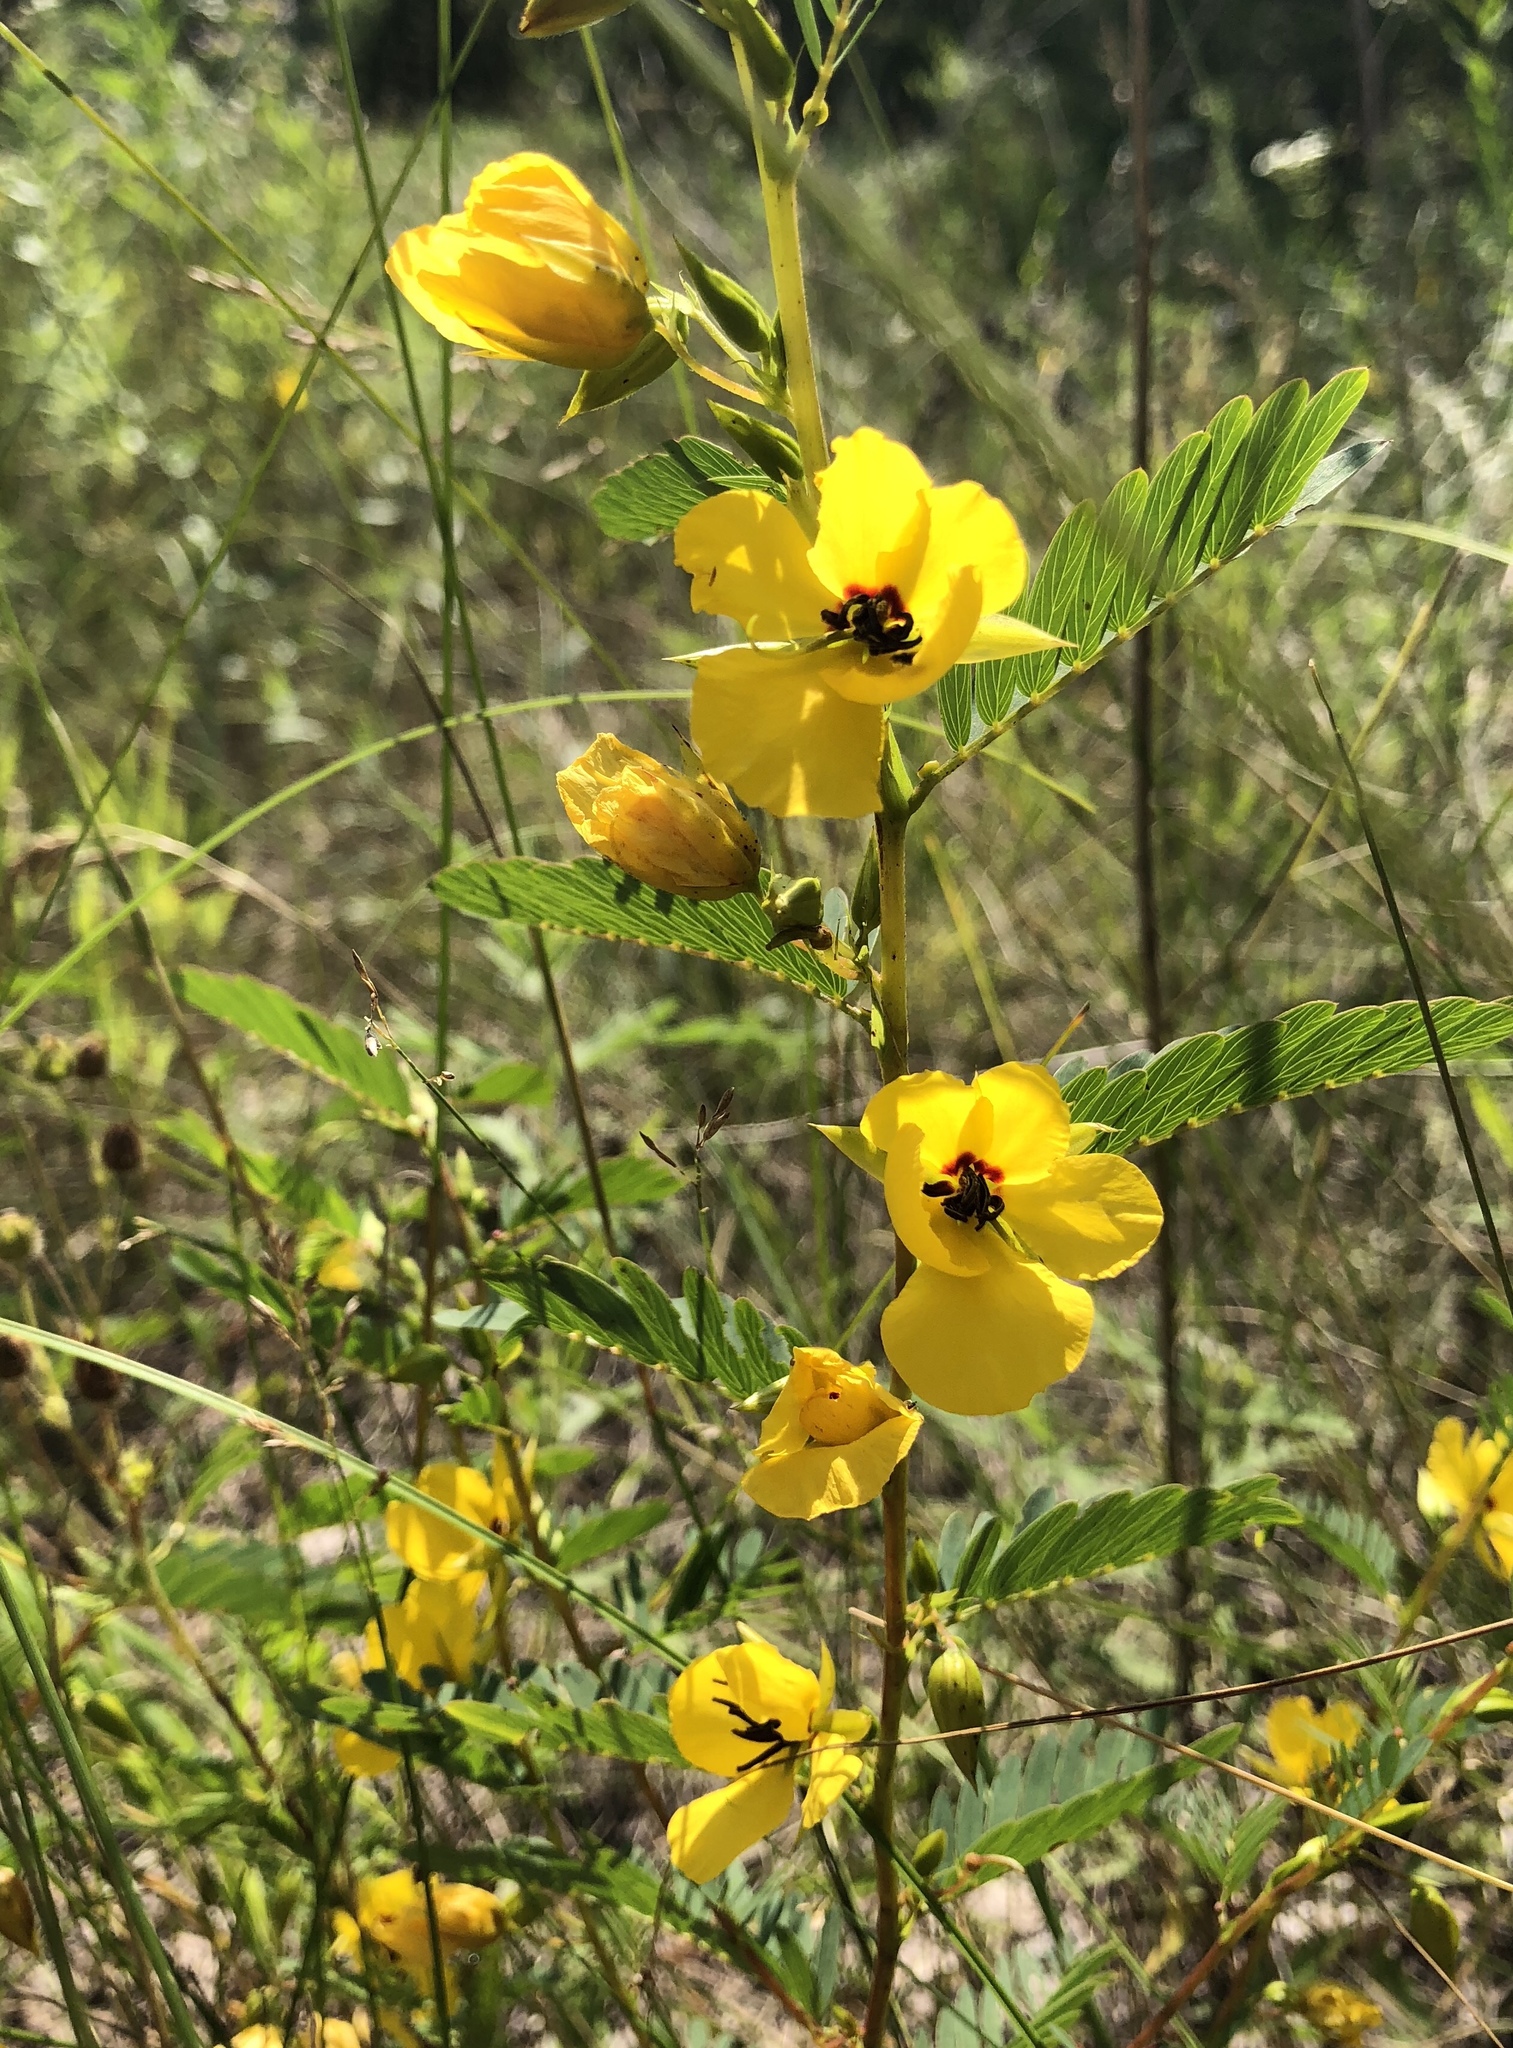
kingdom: Plantae
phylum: Tracheophyta
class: Magnoliopsida
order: Fabales
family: Fabaceae
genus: Chamaecrista
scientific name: Chamaecrista fasciculata
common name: Golden cassia
